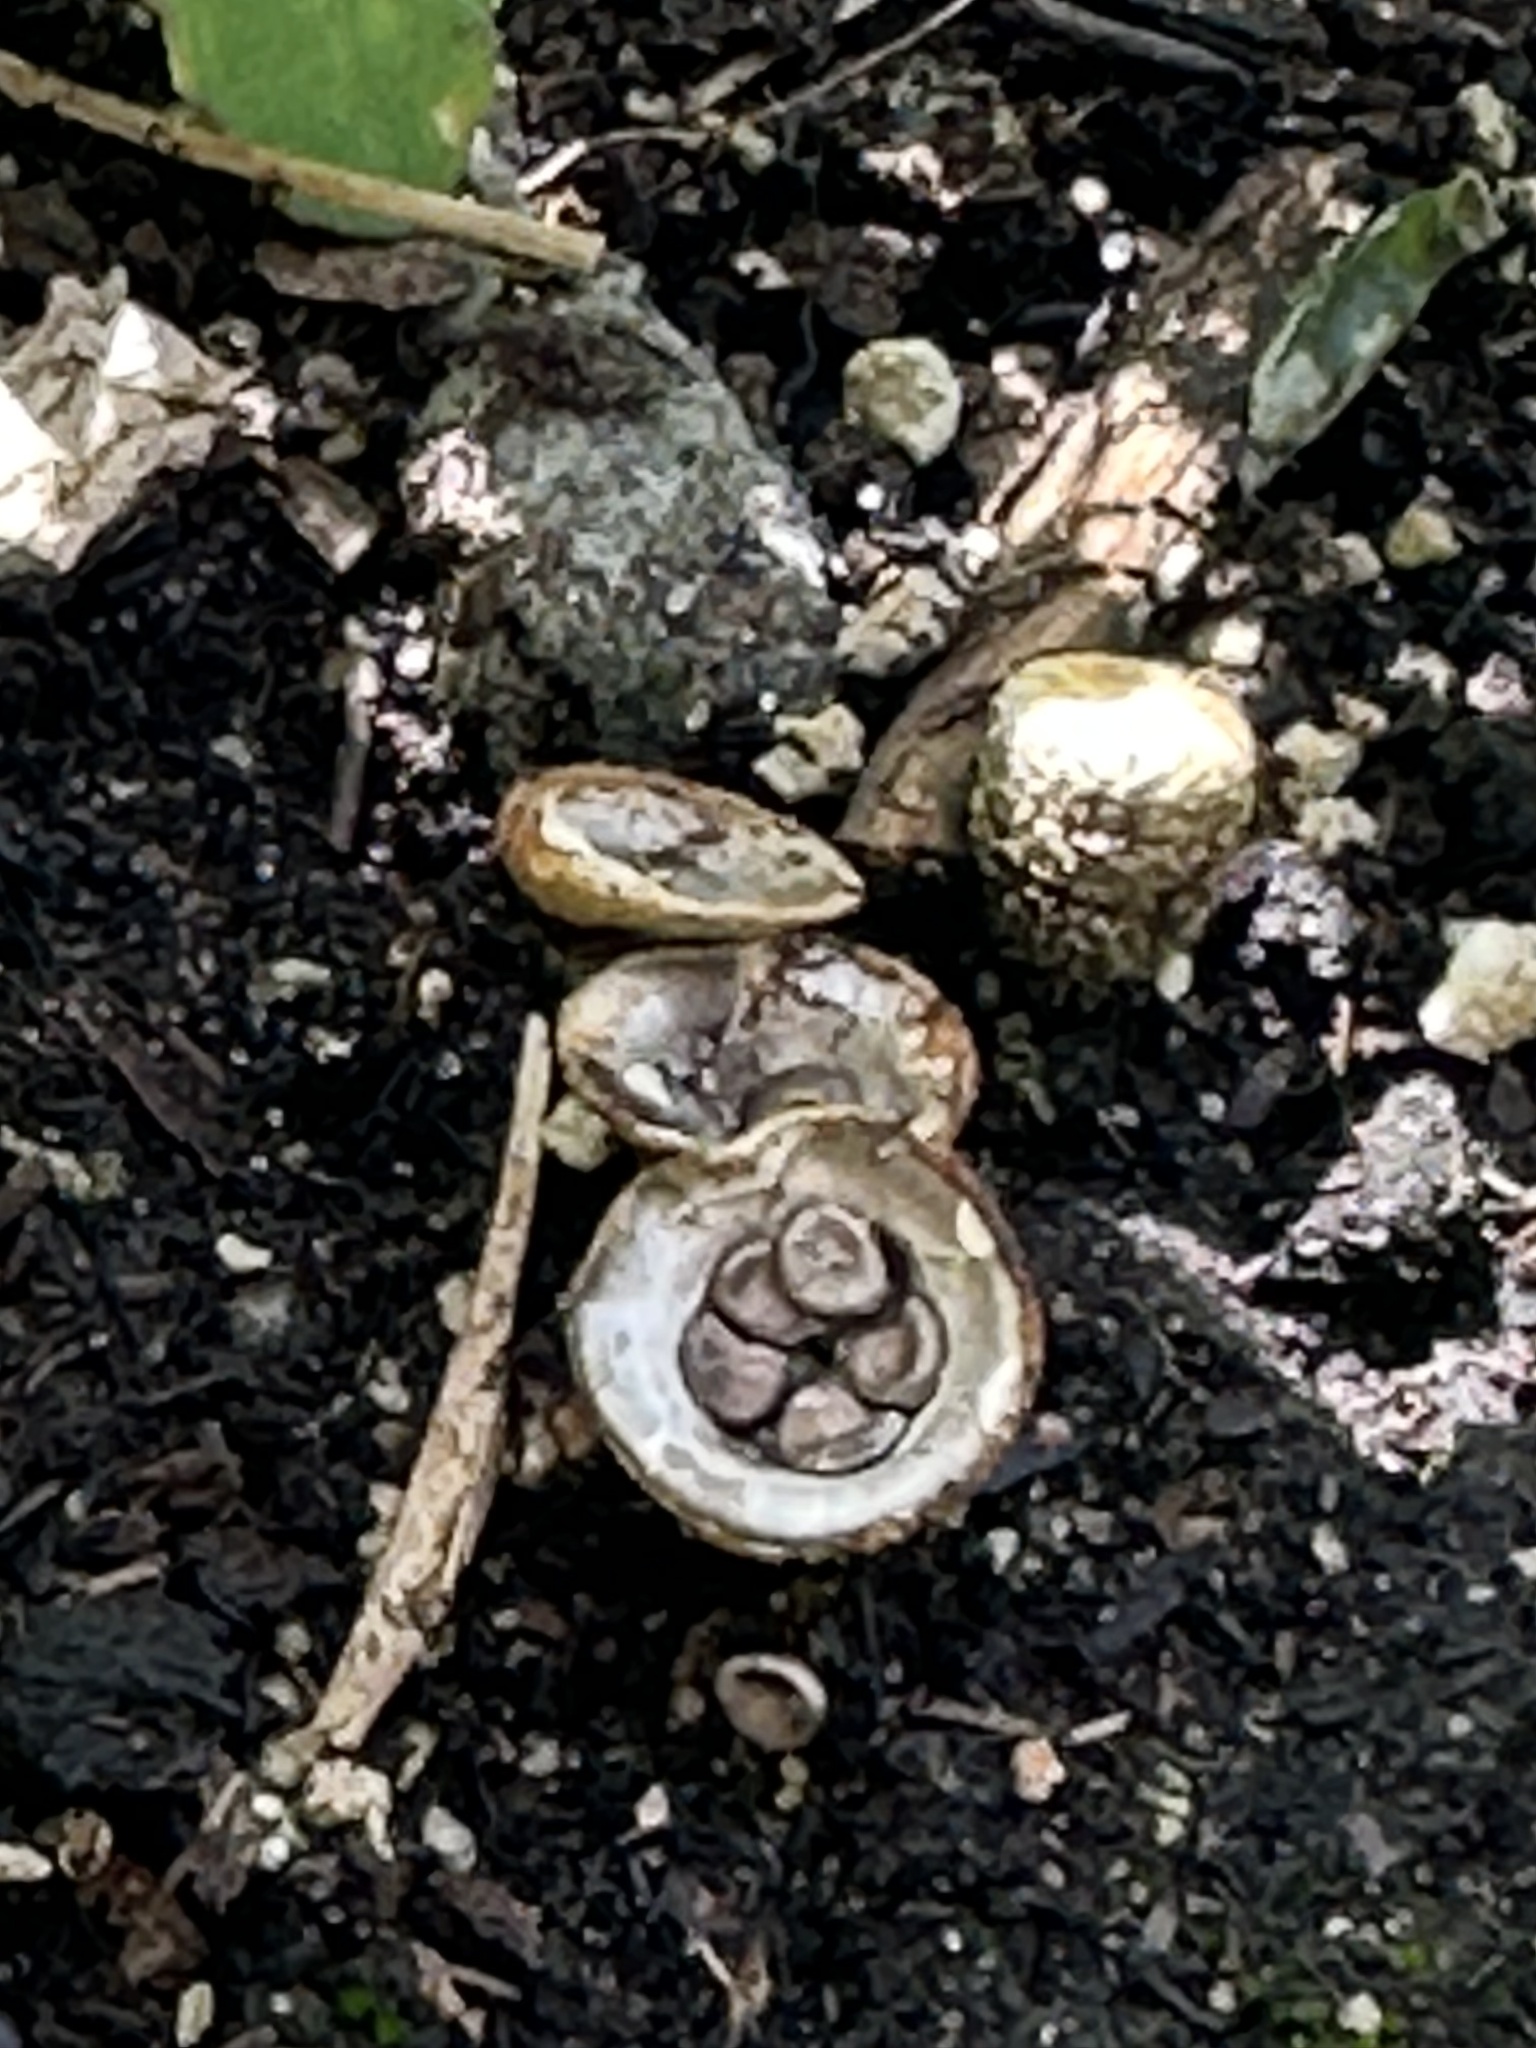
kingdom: Fungi
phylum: Basidiomycota
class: Agaricomycetes
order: Agaricales
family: Nidulariaceae
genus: Crucibulum
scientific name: Crucibulum laeve
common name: Common bird's nest
